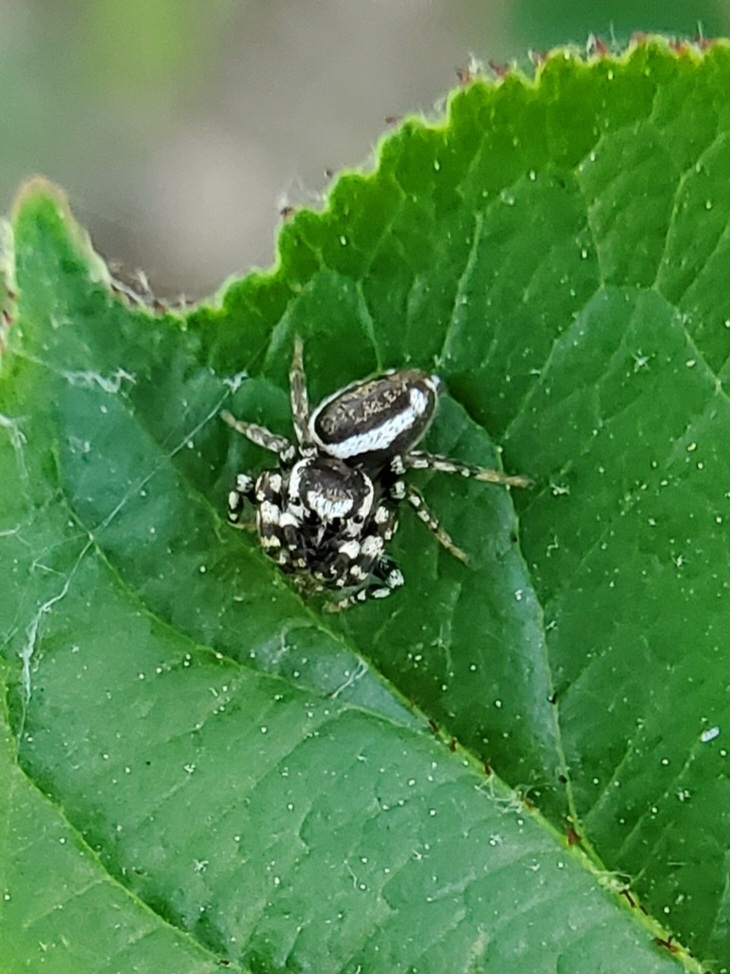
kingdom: Animalia
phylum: Arthropoda
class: Arachnida
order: Araneae
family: Salticidae
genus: Pelegrina
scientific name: Pelegrina proterva
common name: Common white-cheeked jumping spider
